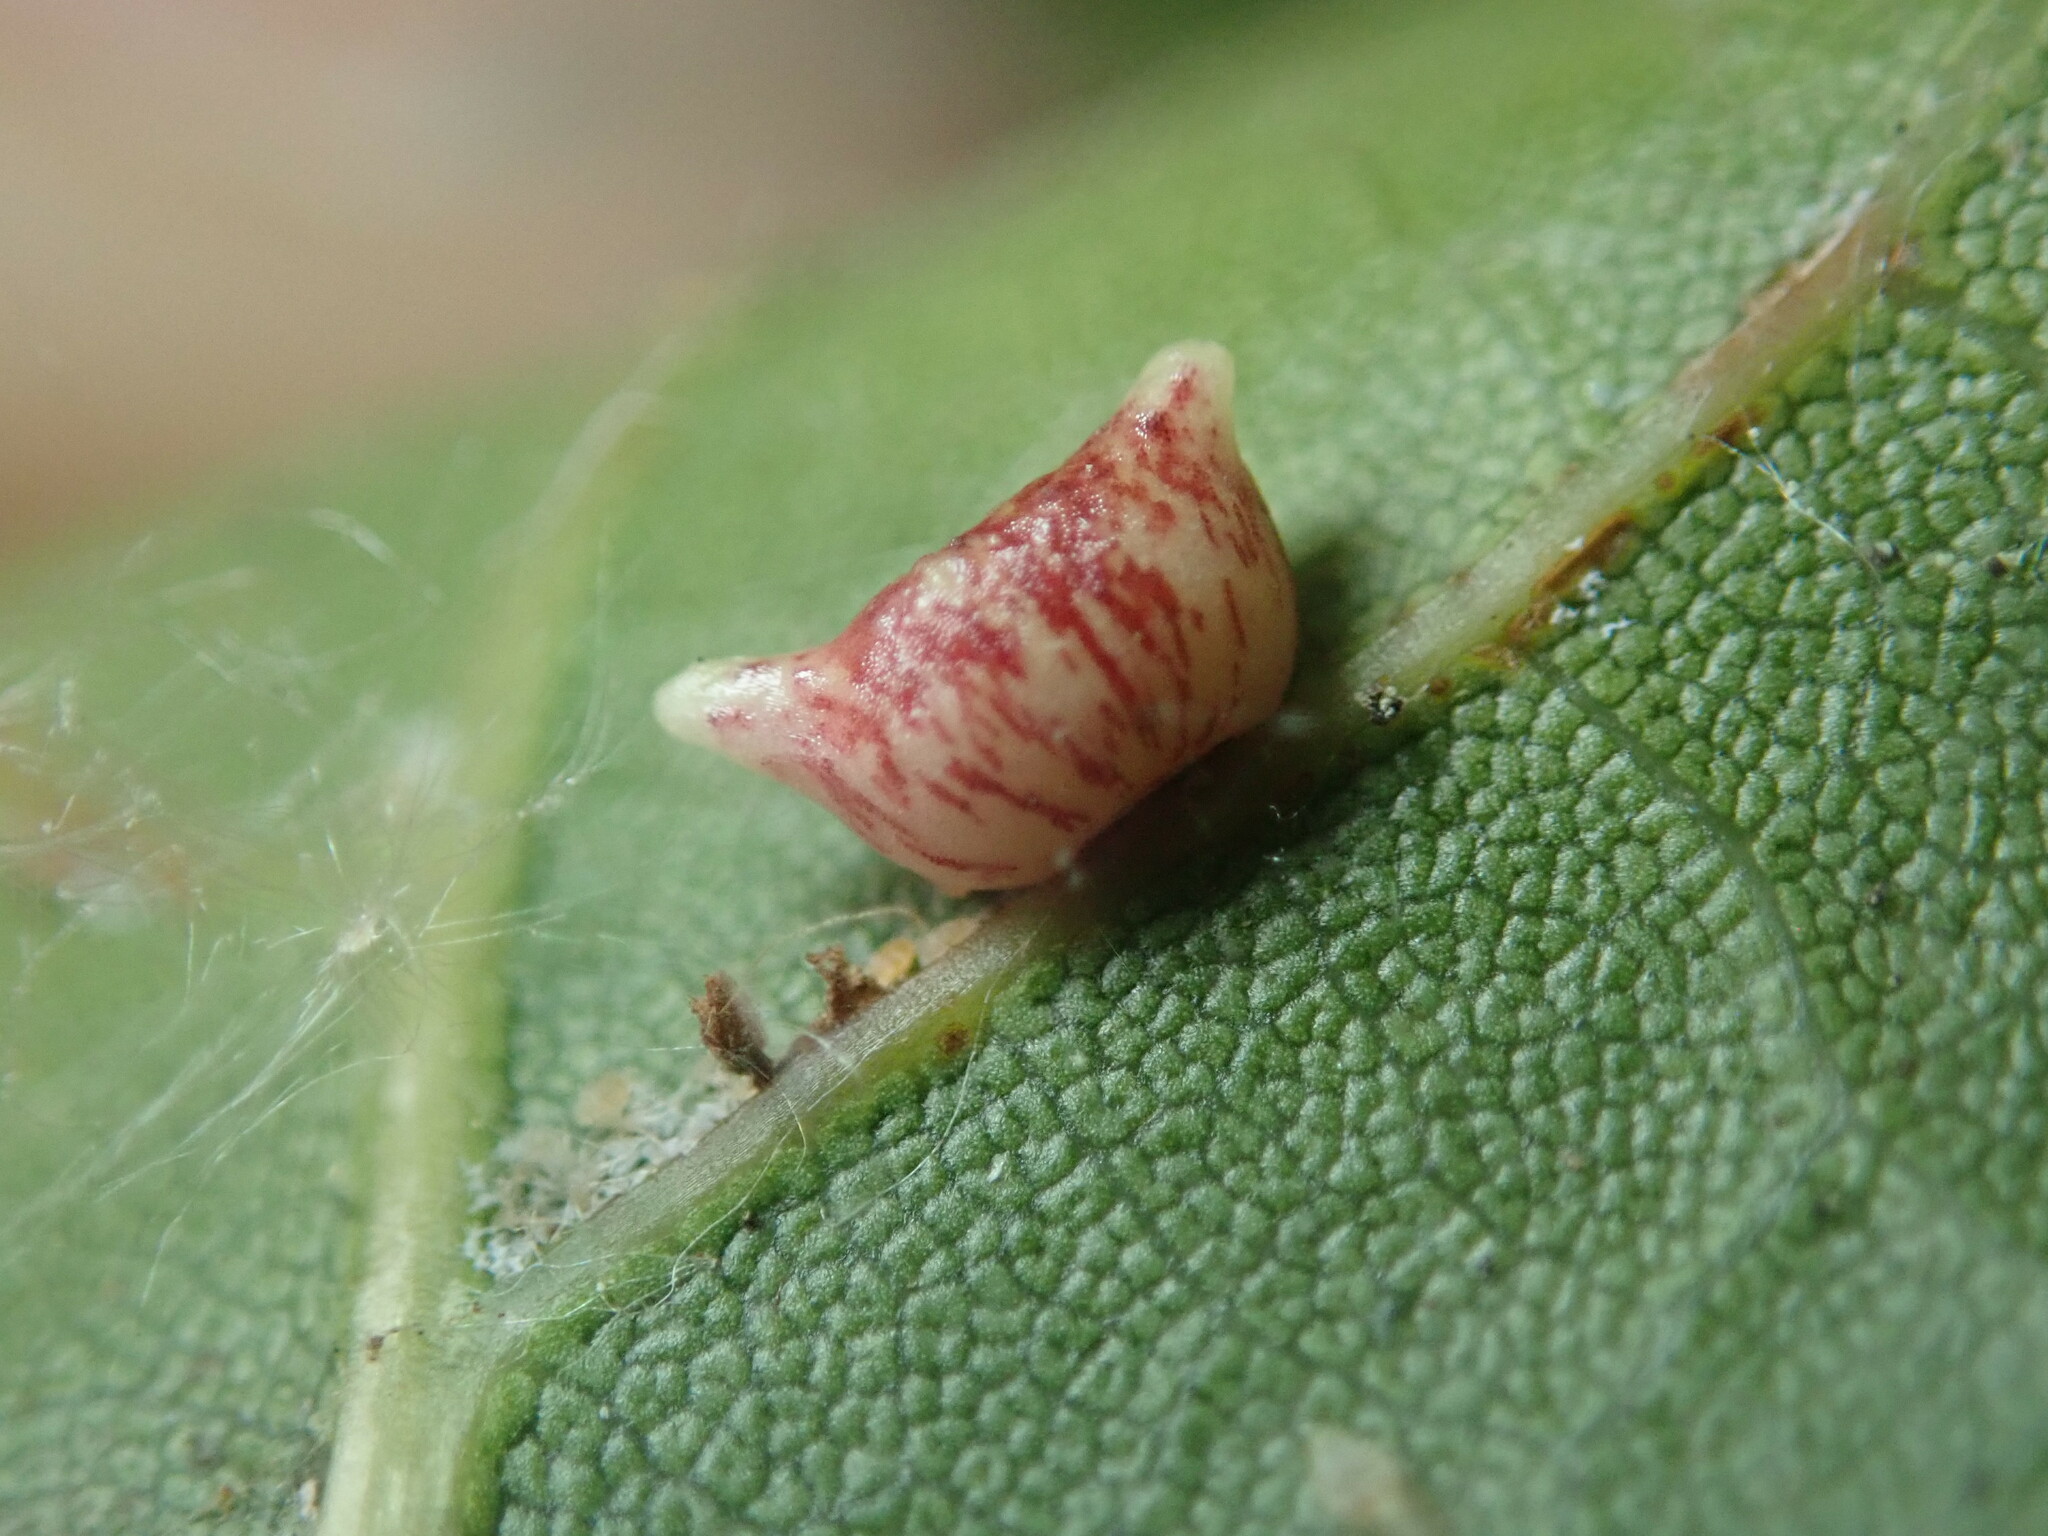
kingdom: Animalia
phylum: Arthropoda
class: Insecta
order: Hymenoptera
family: Cynipidae
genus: Dryocosmus
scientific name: Dryocosmus
